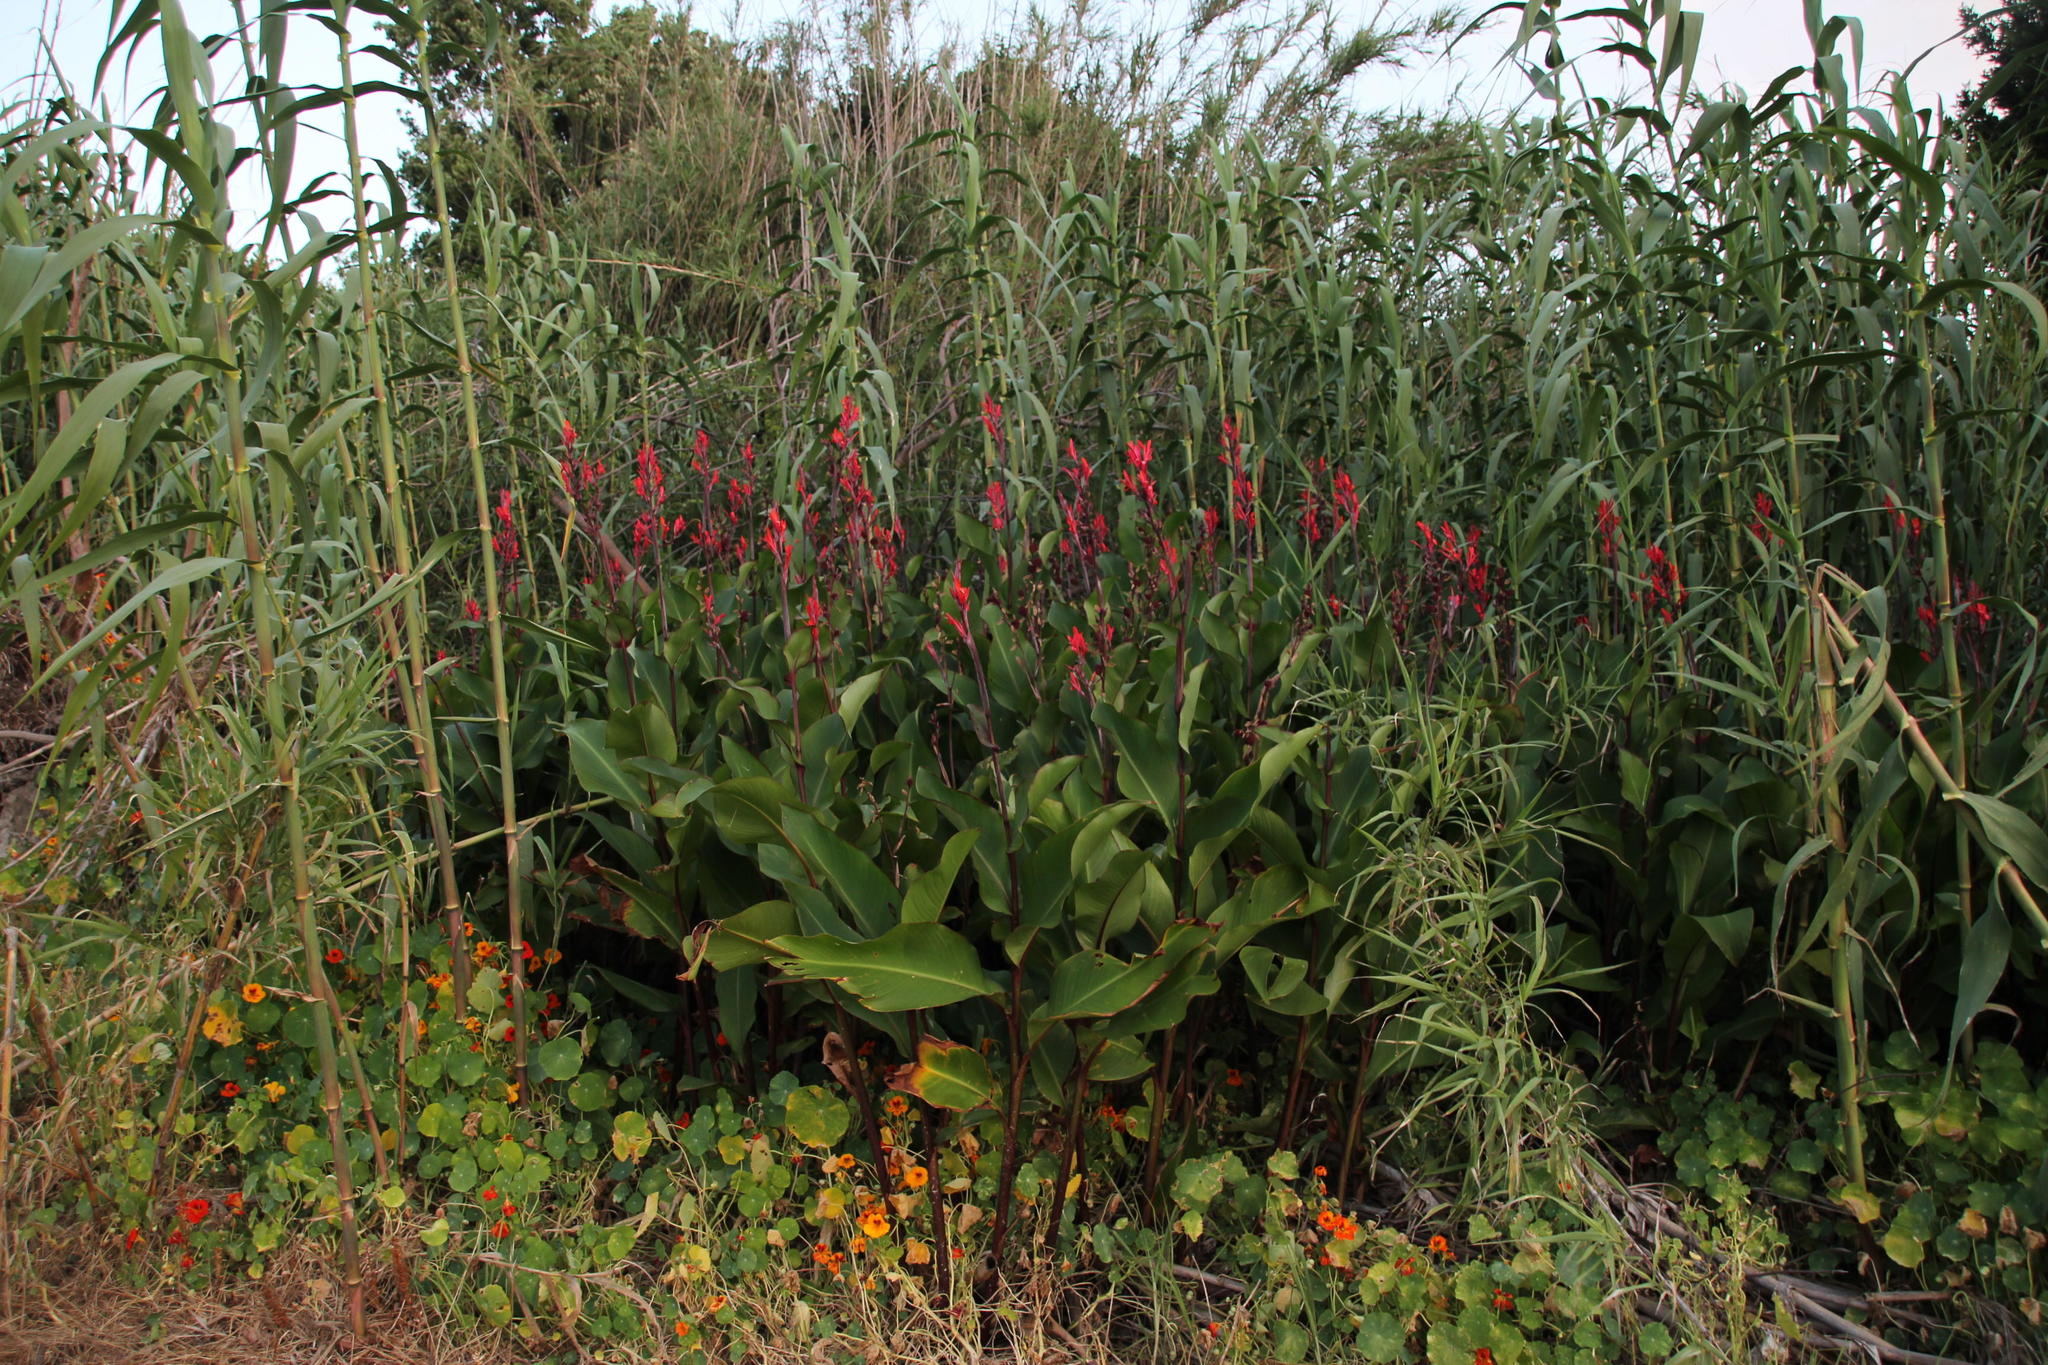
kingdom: Plantae
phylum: Tracheophyta
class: Liliopsida
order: Zingiberales
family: Cannaceae
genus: Canna
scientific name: Canna indica
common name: Indian shot
